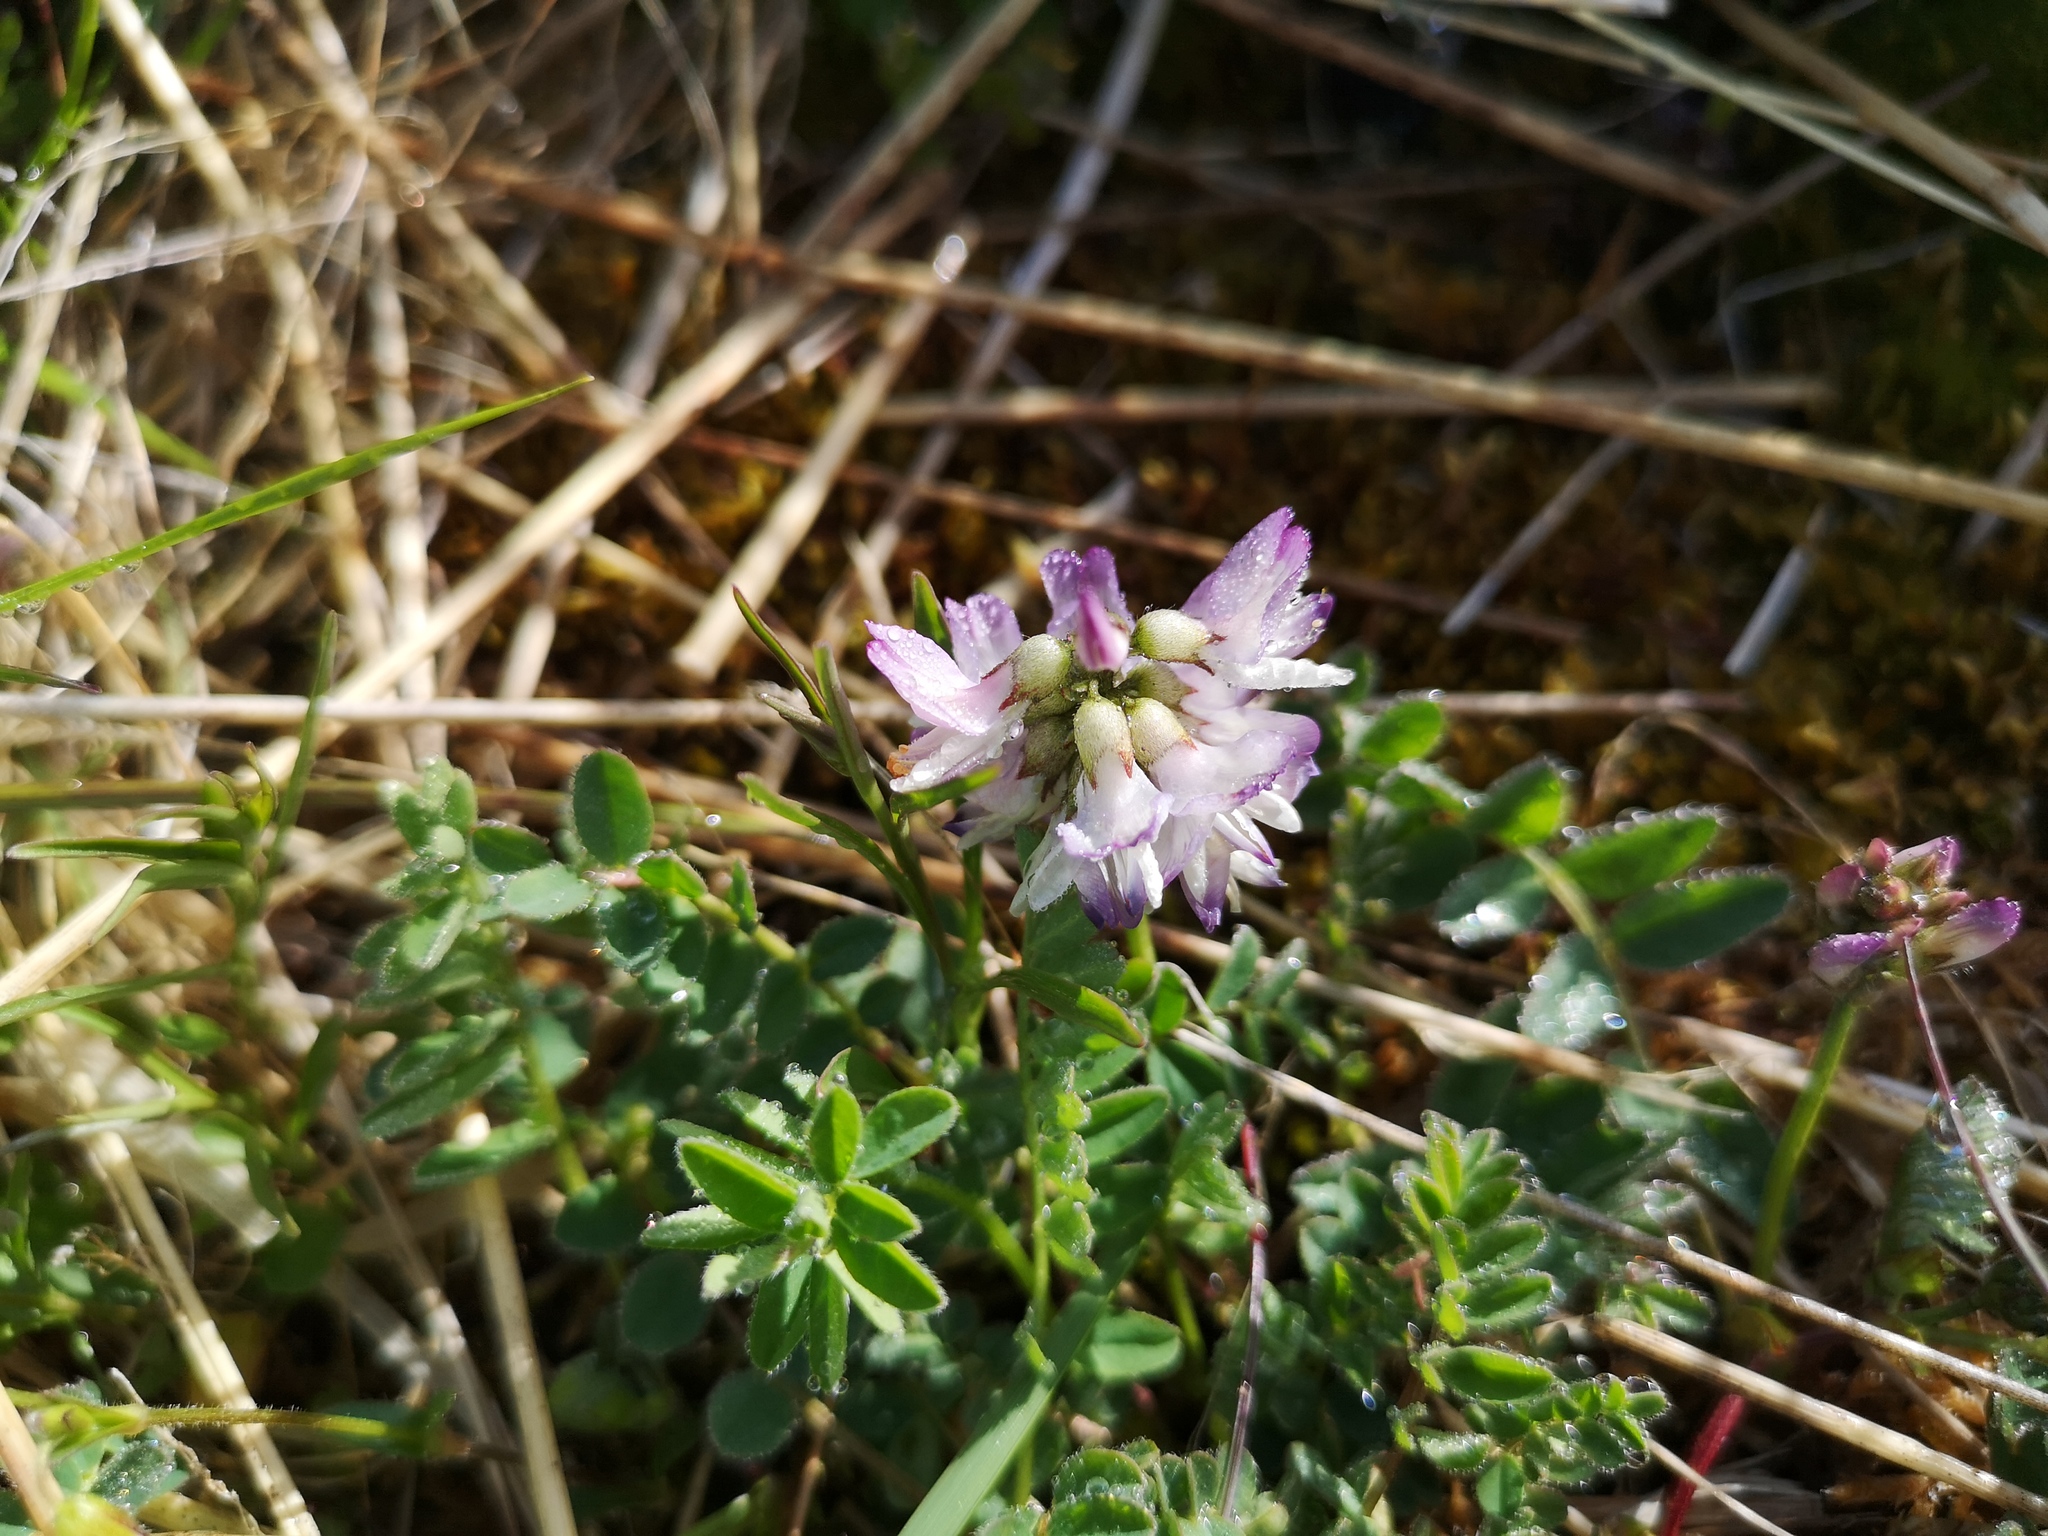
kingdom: Plantae
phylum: Tracheophyta
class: Magnoliopsida
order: Fabales
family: Fabaceae
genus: Astragalus
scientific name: Astragalus alpinus
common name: Alpine milk-vetch
